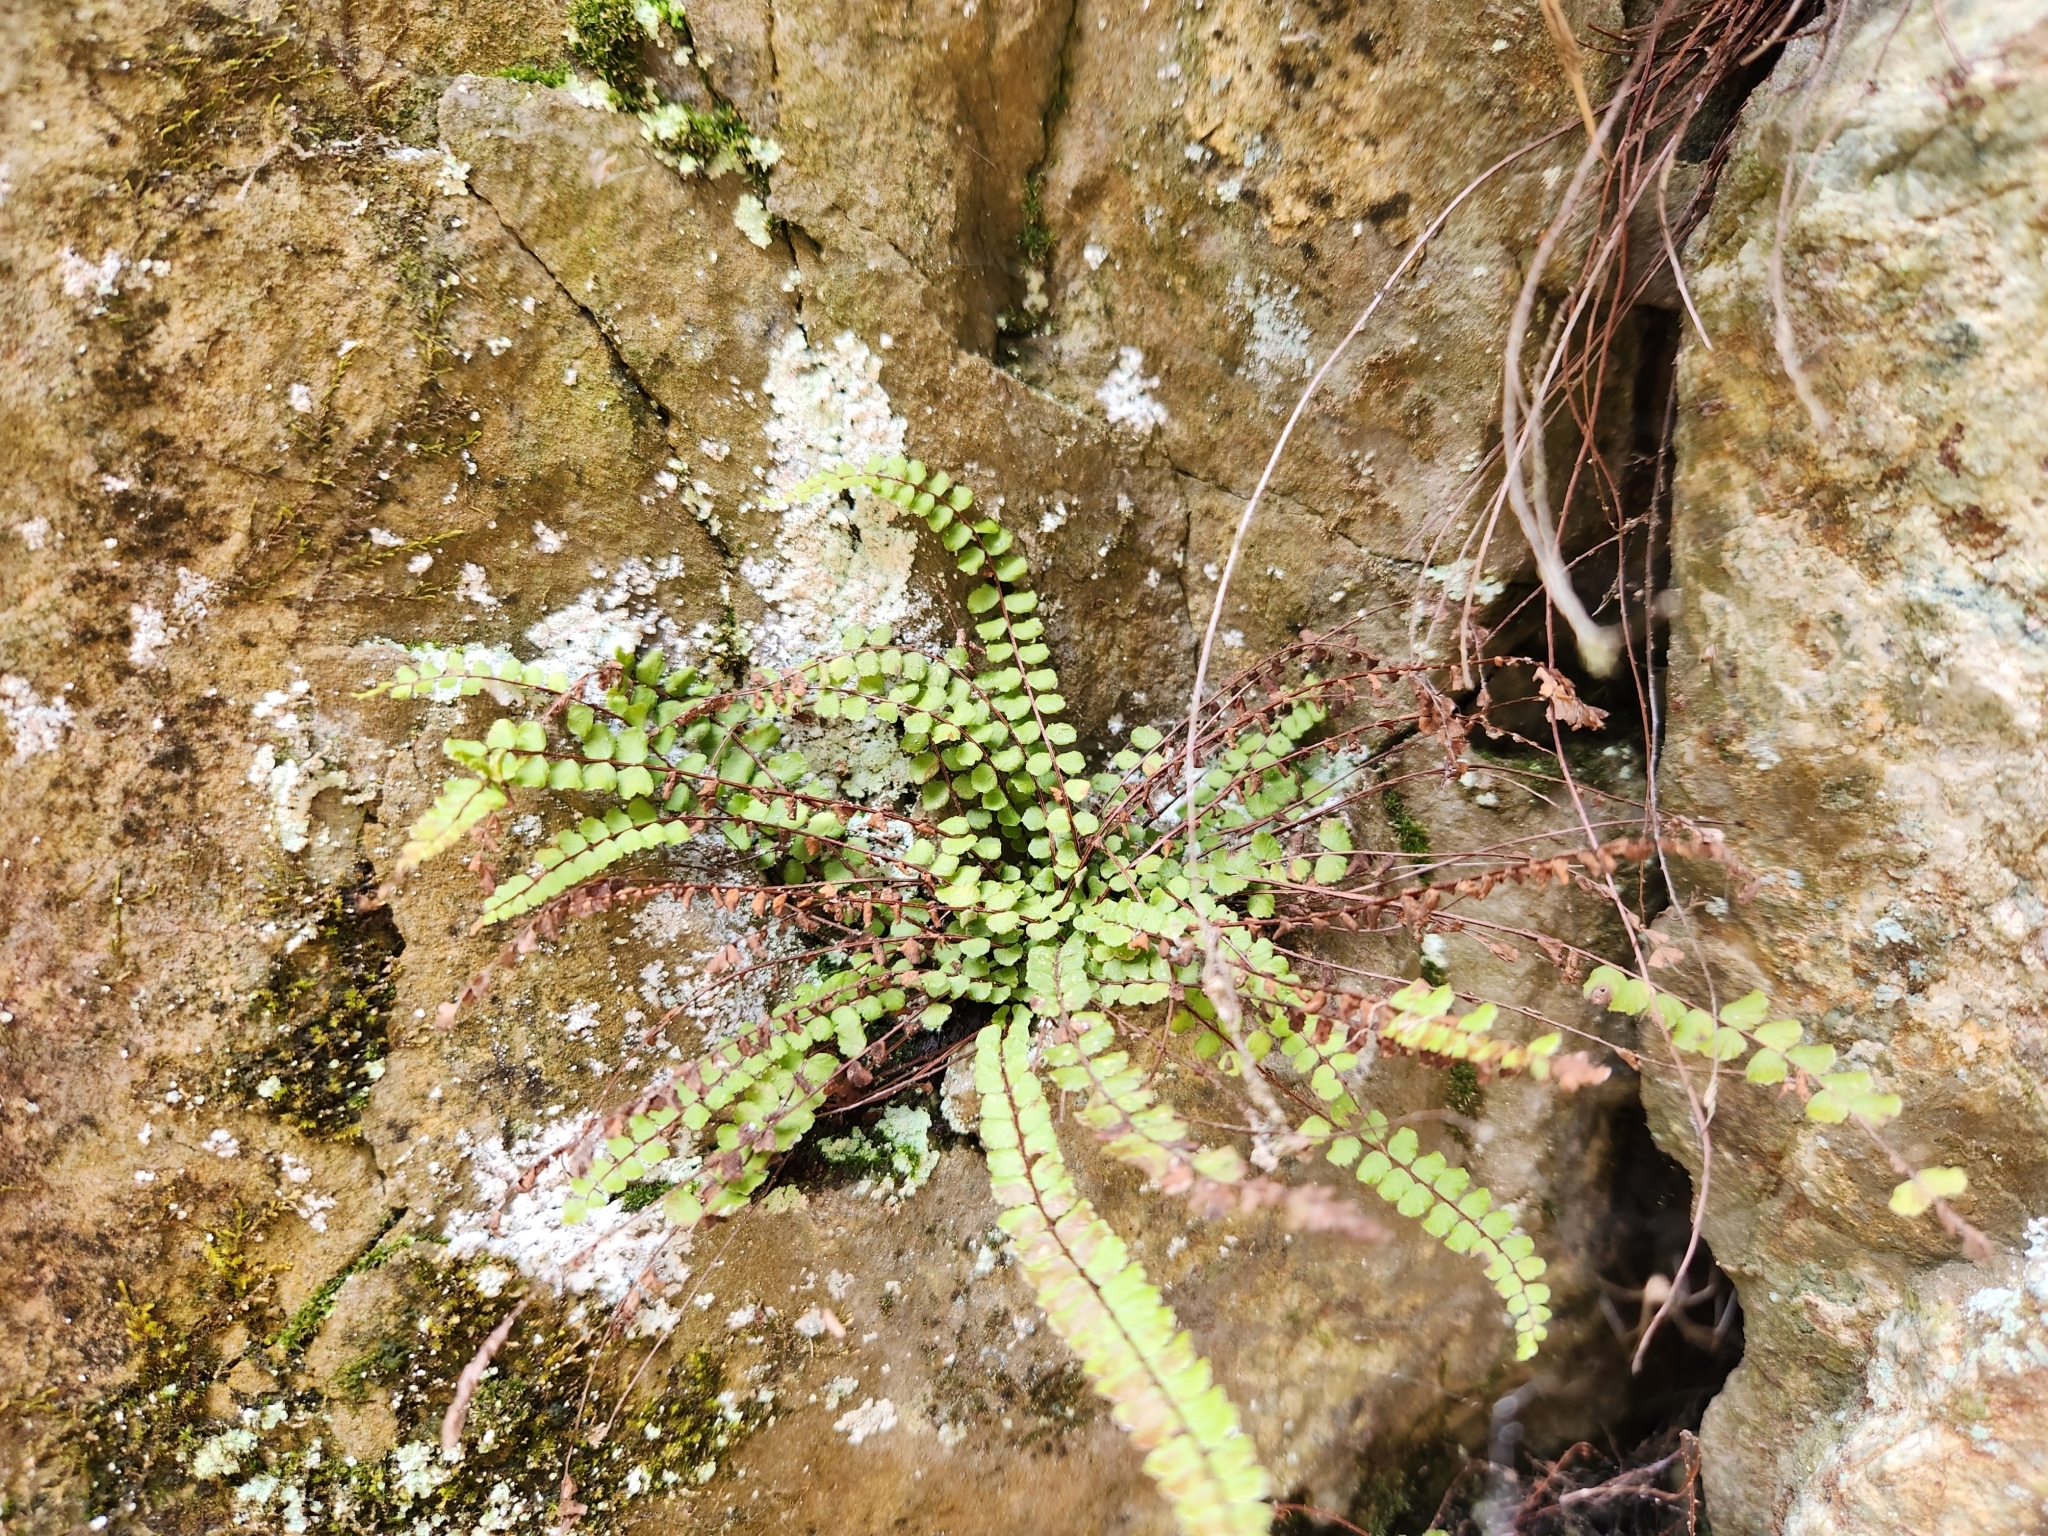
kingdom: Plantae
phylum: Tracheophyta
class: Polypodiopsida
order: Polypodiales
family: Aspleniaceae
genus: Asplenium
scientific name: Asplenium trichomanes
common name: Maidenhair spleenwort
